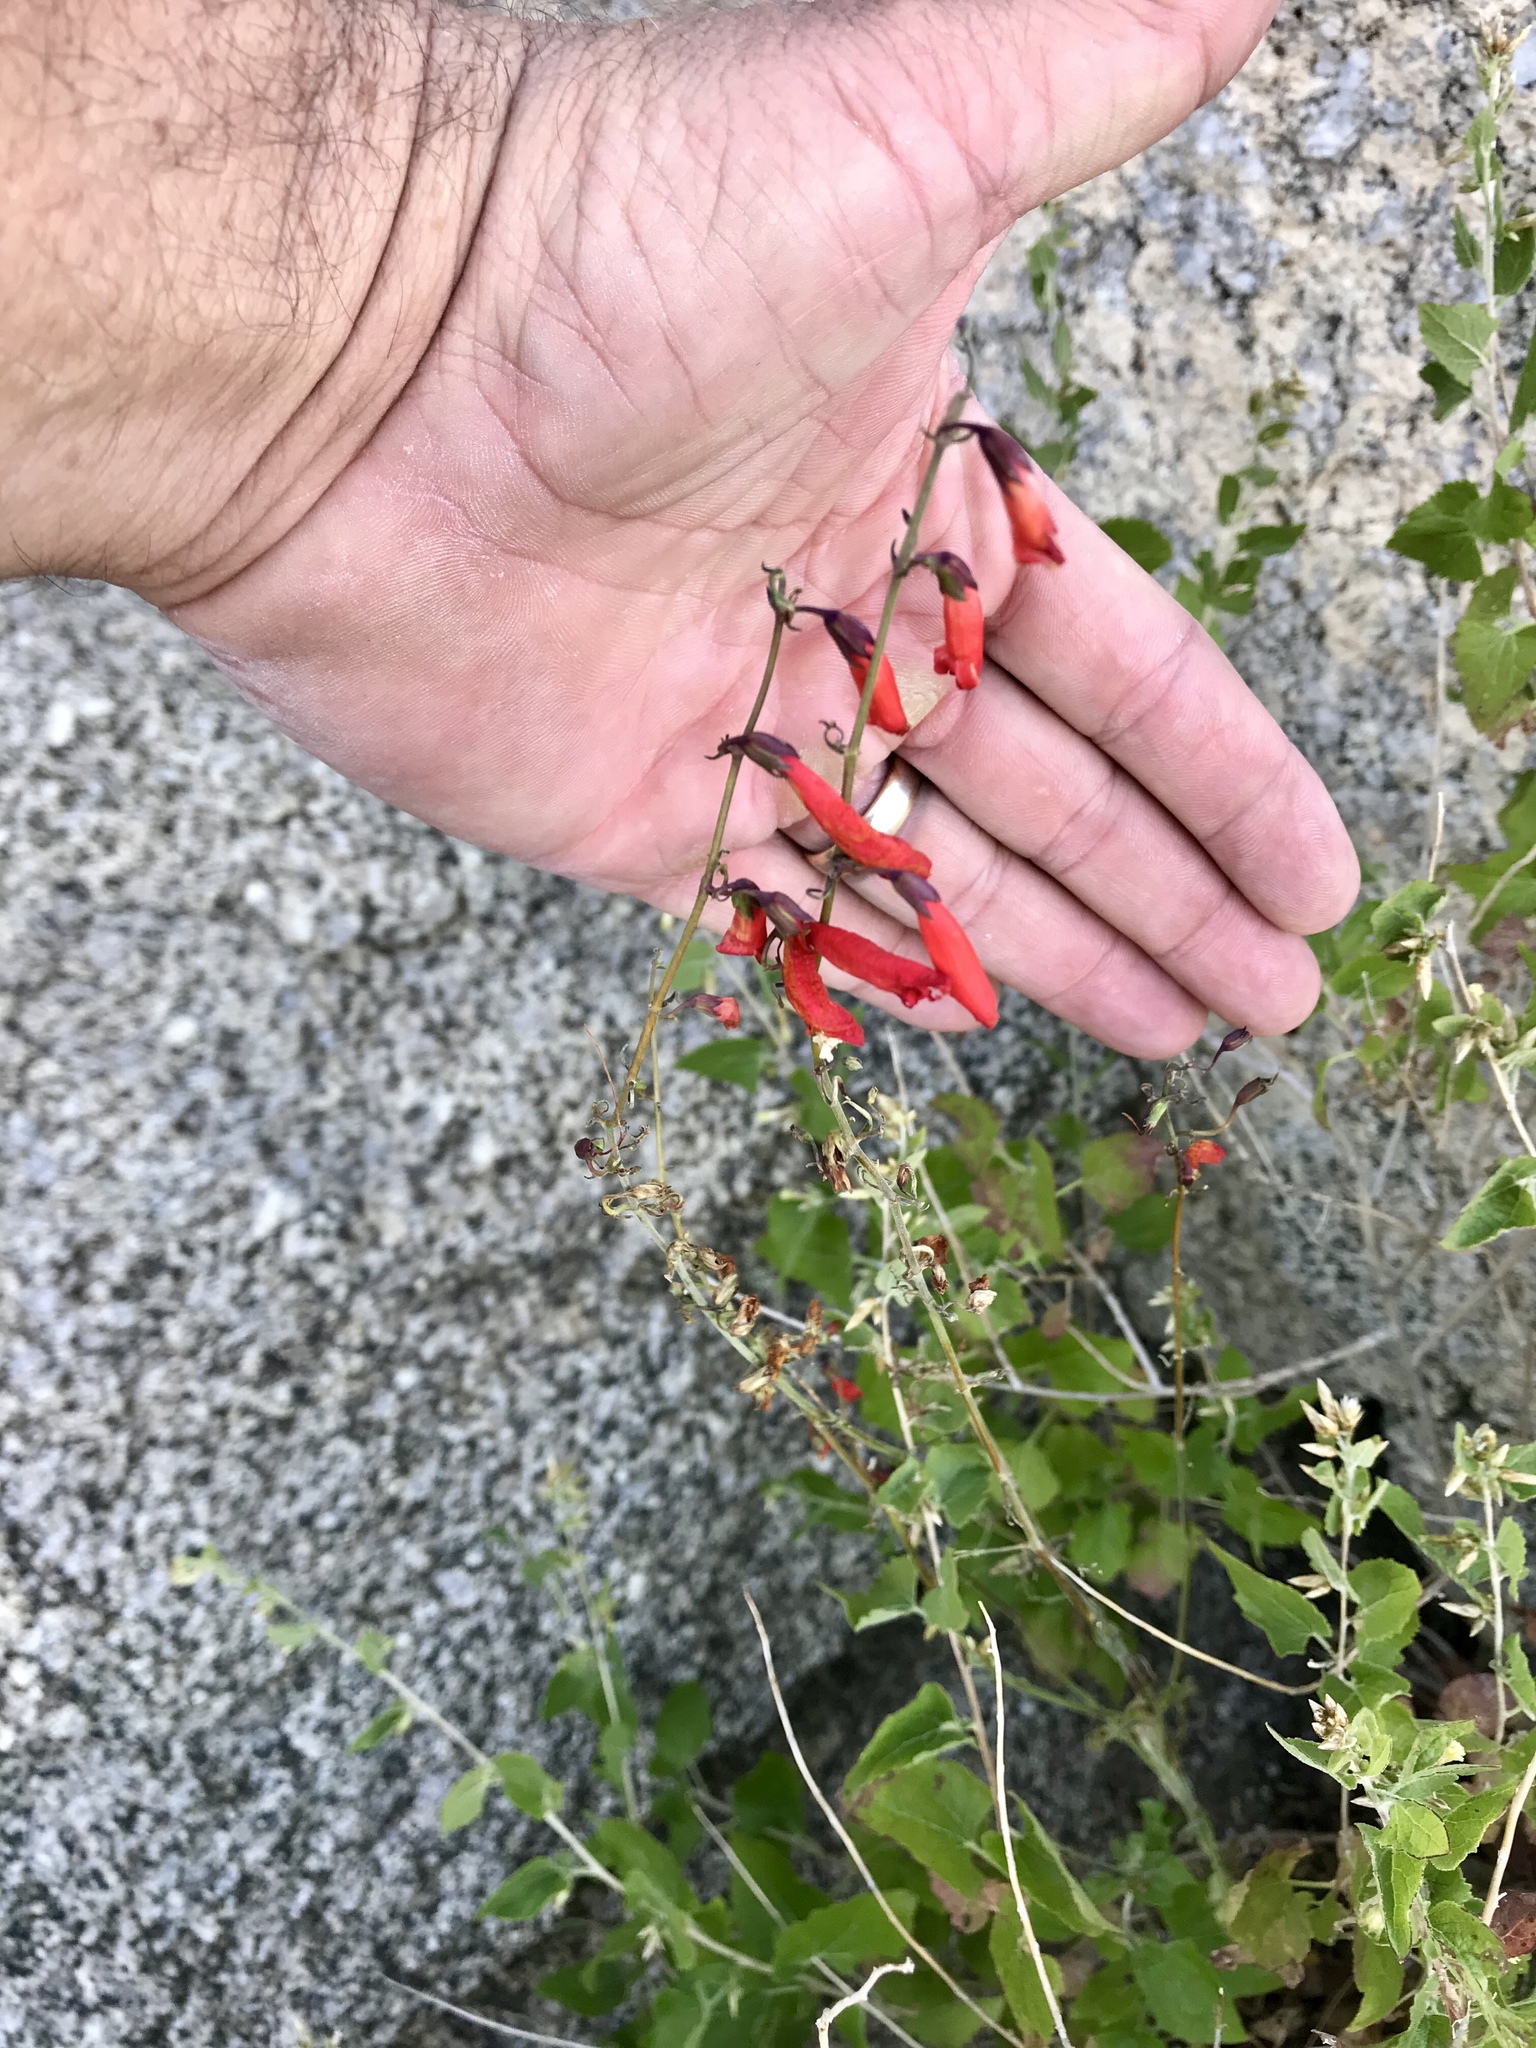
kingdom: Plantae
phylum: Tracheophyta
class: Magnoliopsida
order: Lamiales
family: Plantaginaceae
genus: Penstemon
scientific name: Penstemon barbatus
